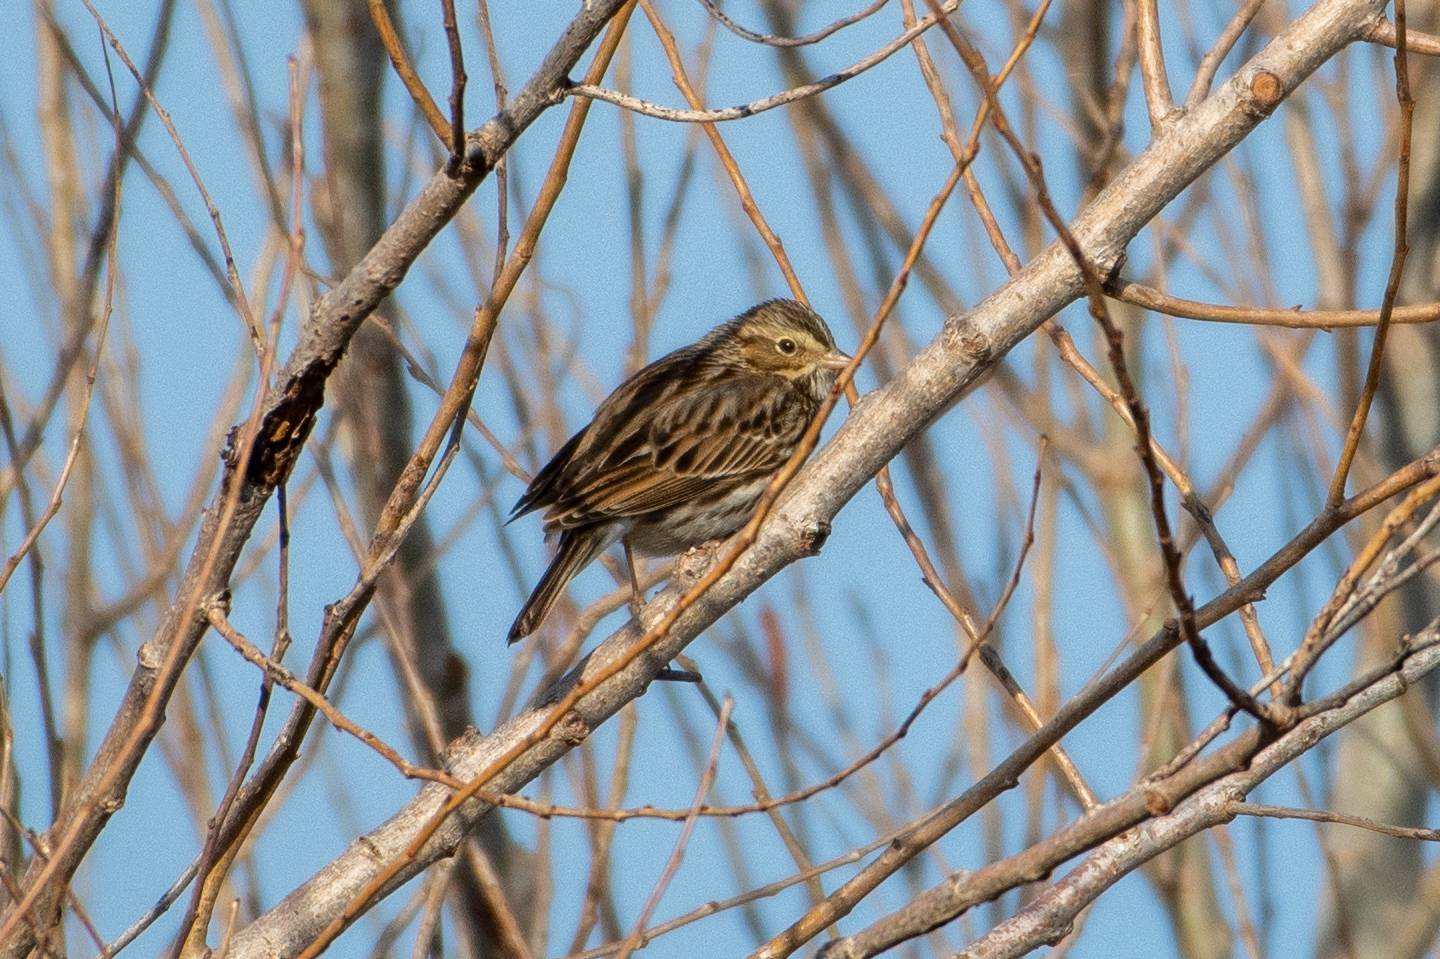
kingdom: Animalia
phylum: Chordata
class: Aves
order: Passeriformes
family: Passerellidae
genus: Passerculus
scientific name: Passerculus sandwichensis
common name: Savannah sparrow
